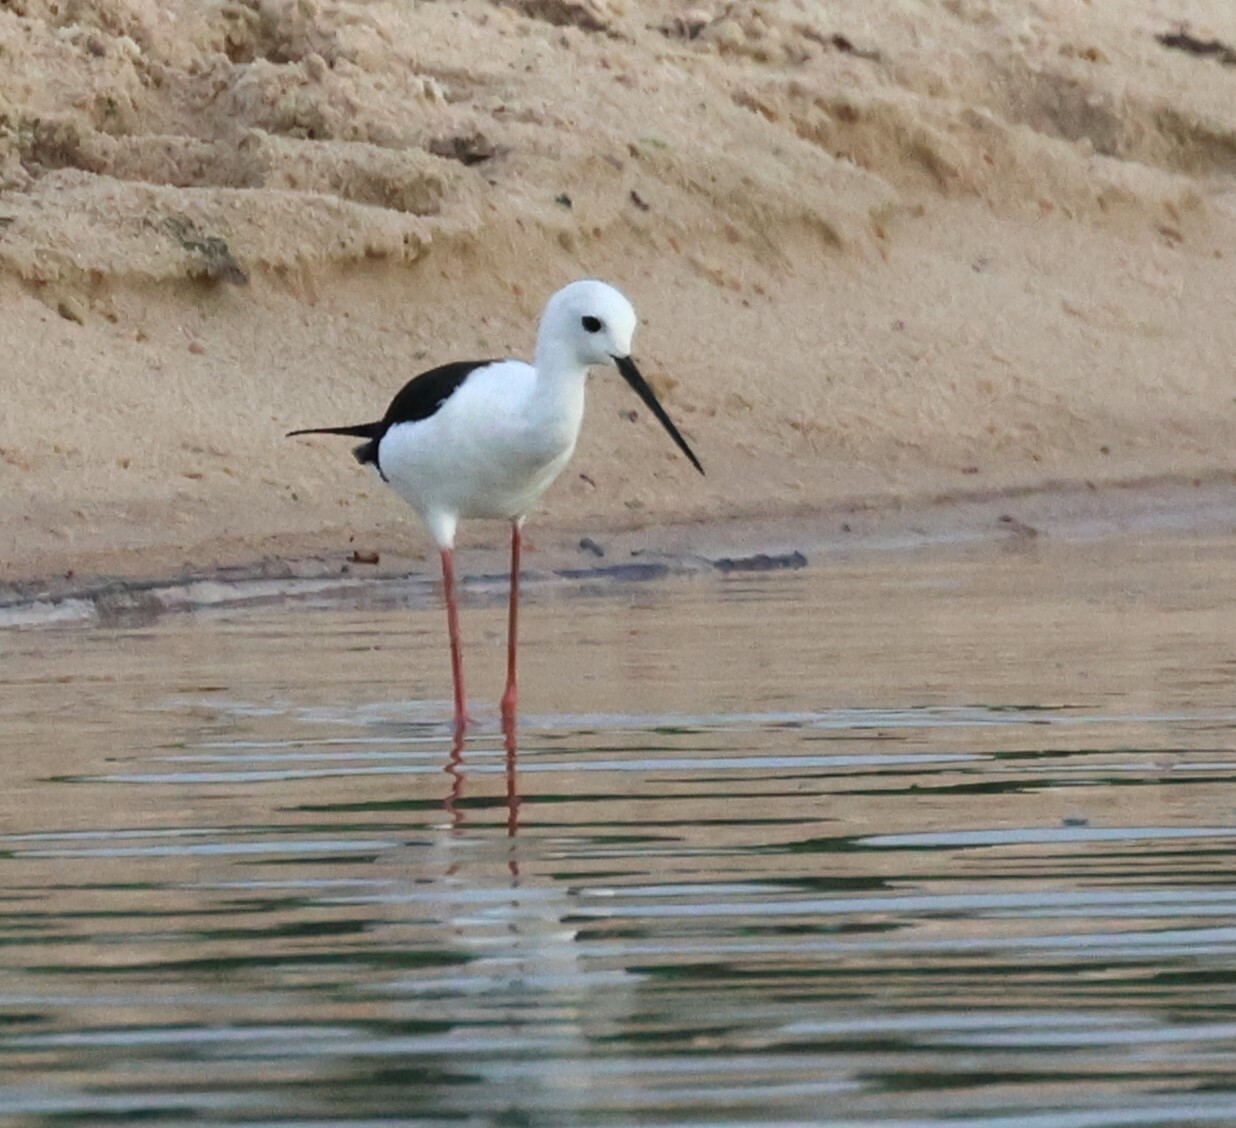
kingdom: Animalia
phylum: Chordata
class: Aves
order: Charadriiformes
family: Recurvirostridae
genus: Himantopus
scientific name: Himantopus himantopus
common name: Black-winged stilt
